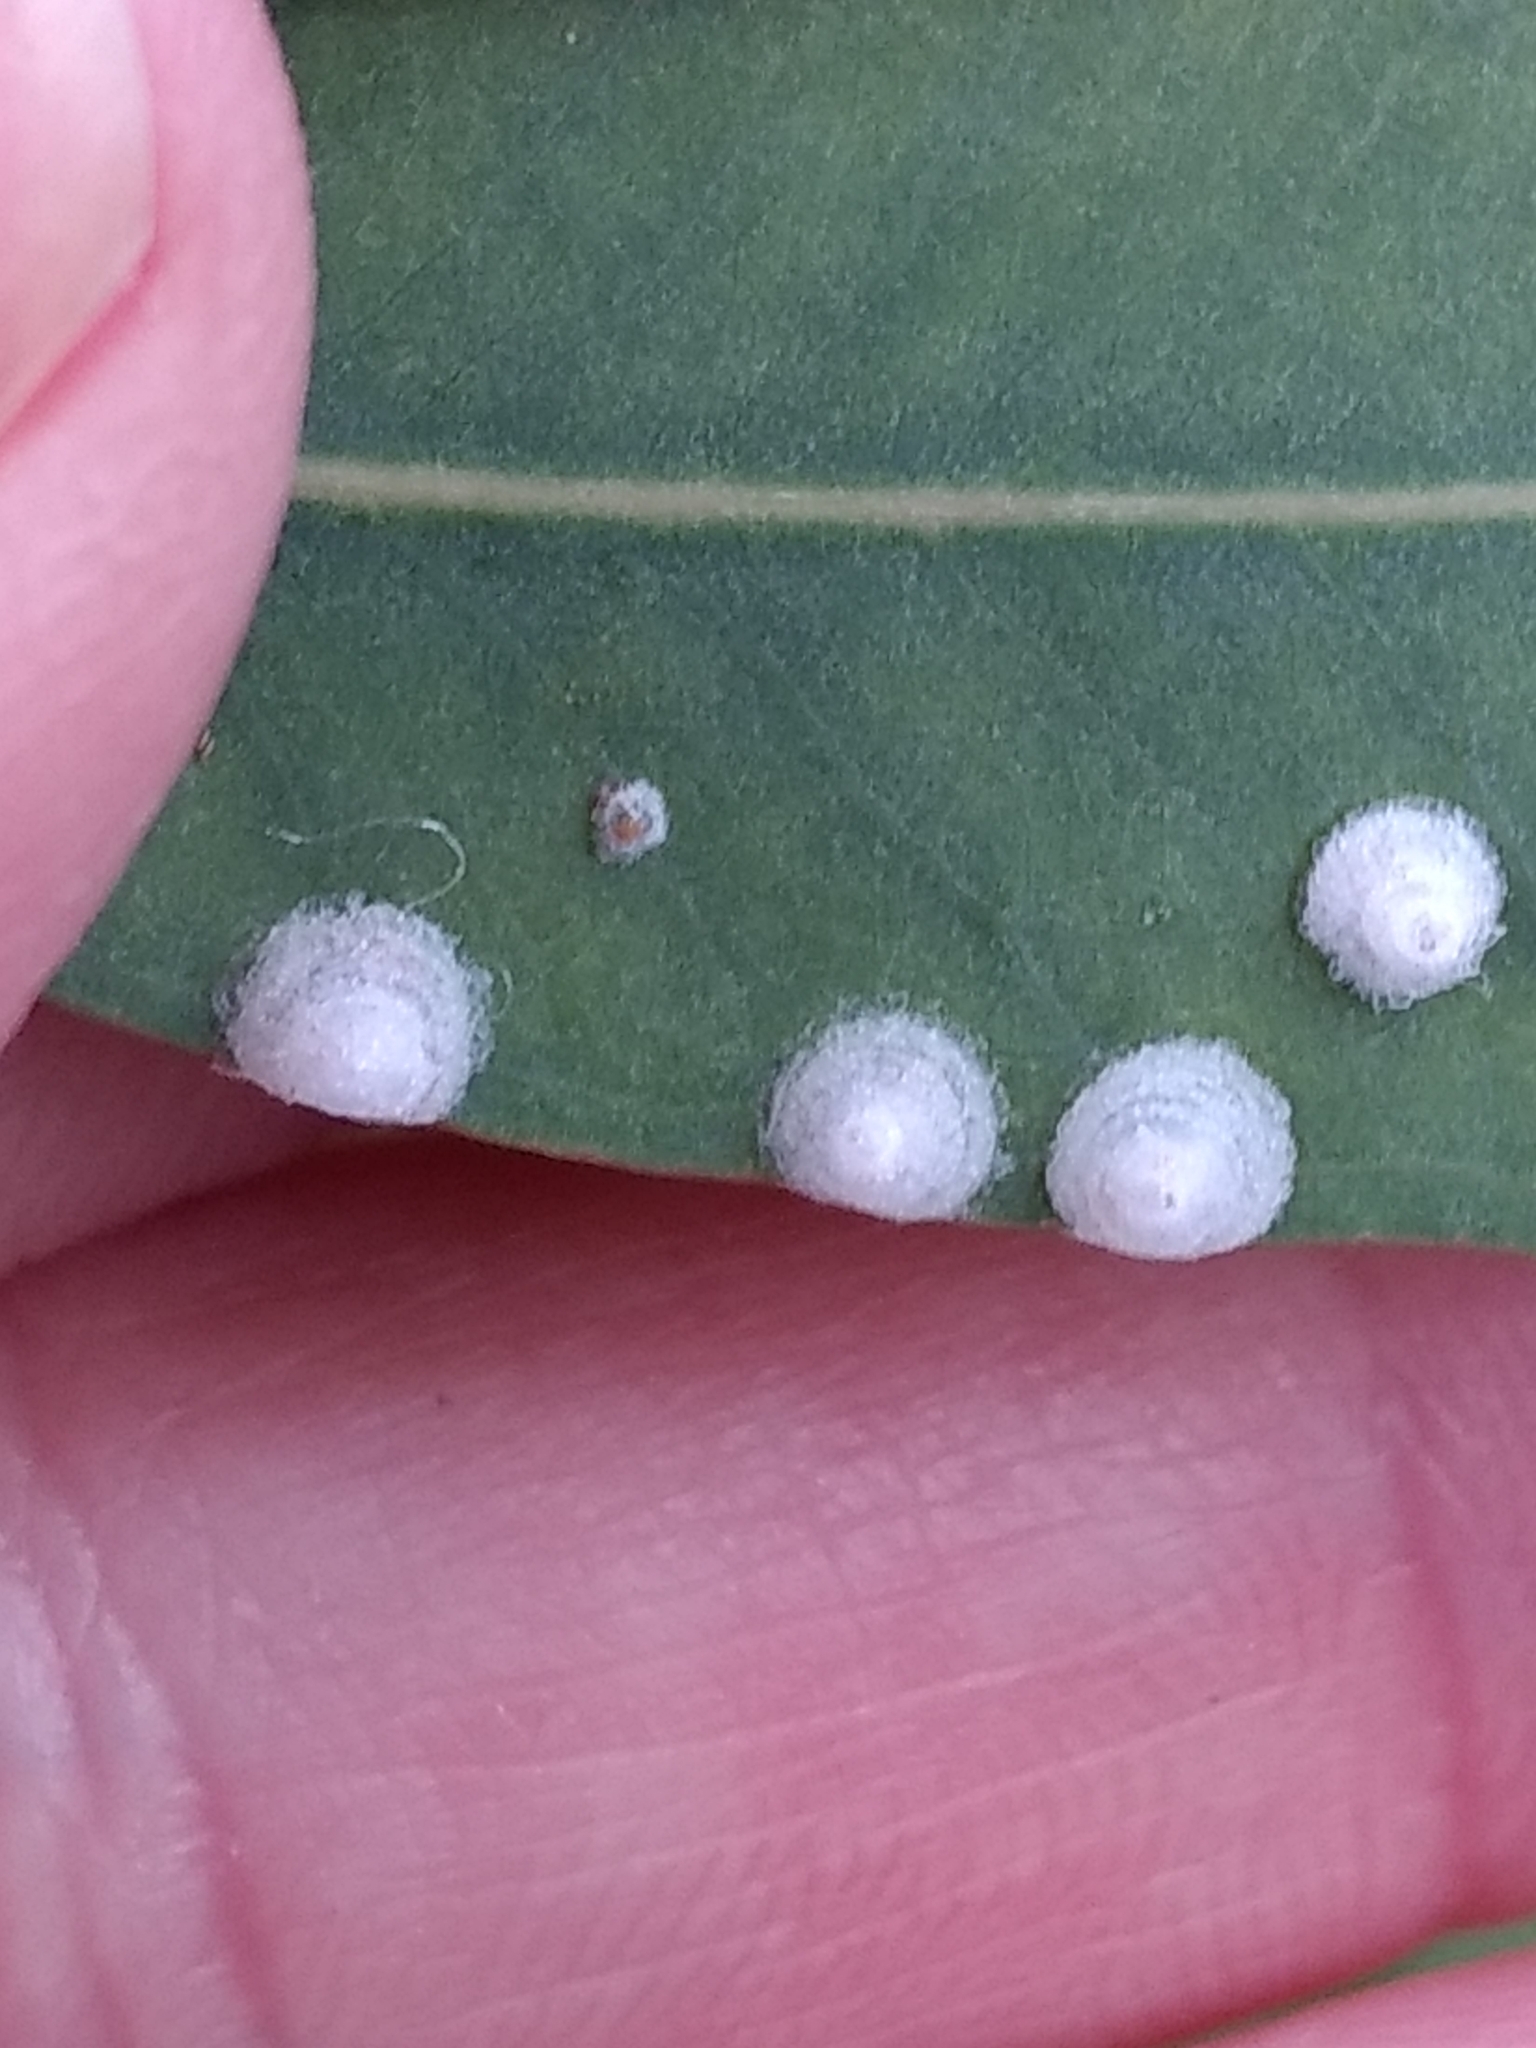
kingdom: Animalia
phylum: Arthropoda
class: Insecta
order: Hemiptera
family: Aphalaridae
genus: Glycaspis
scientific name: Glycaspis brimblecombei
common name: Red gum lerp psyllid
